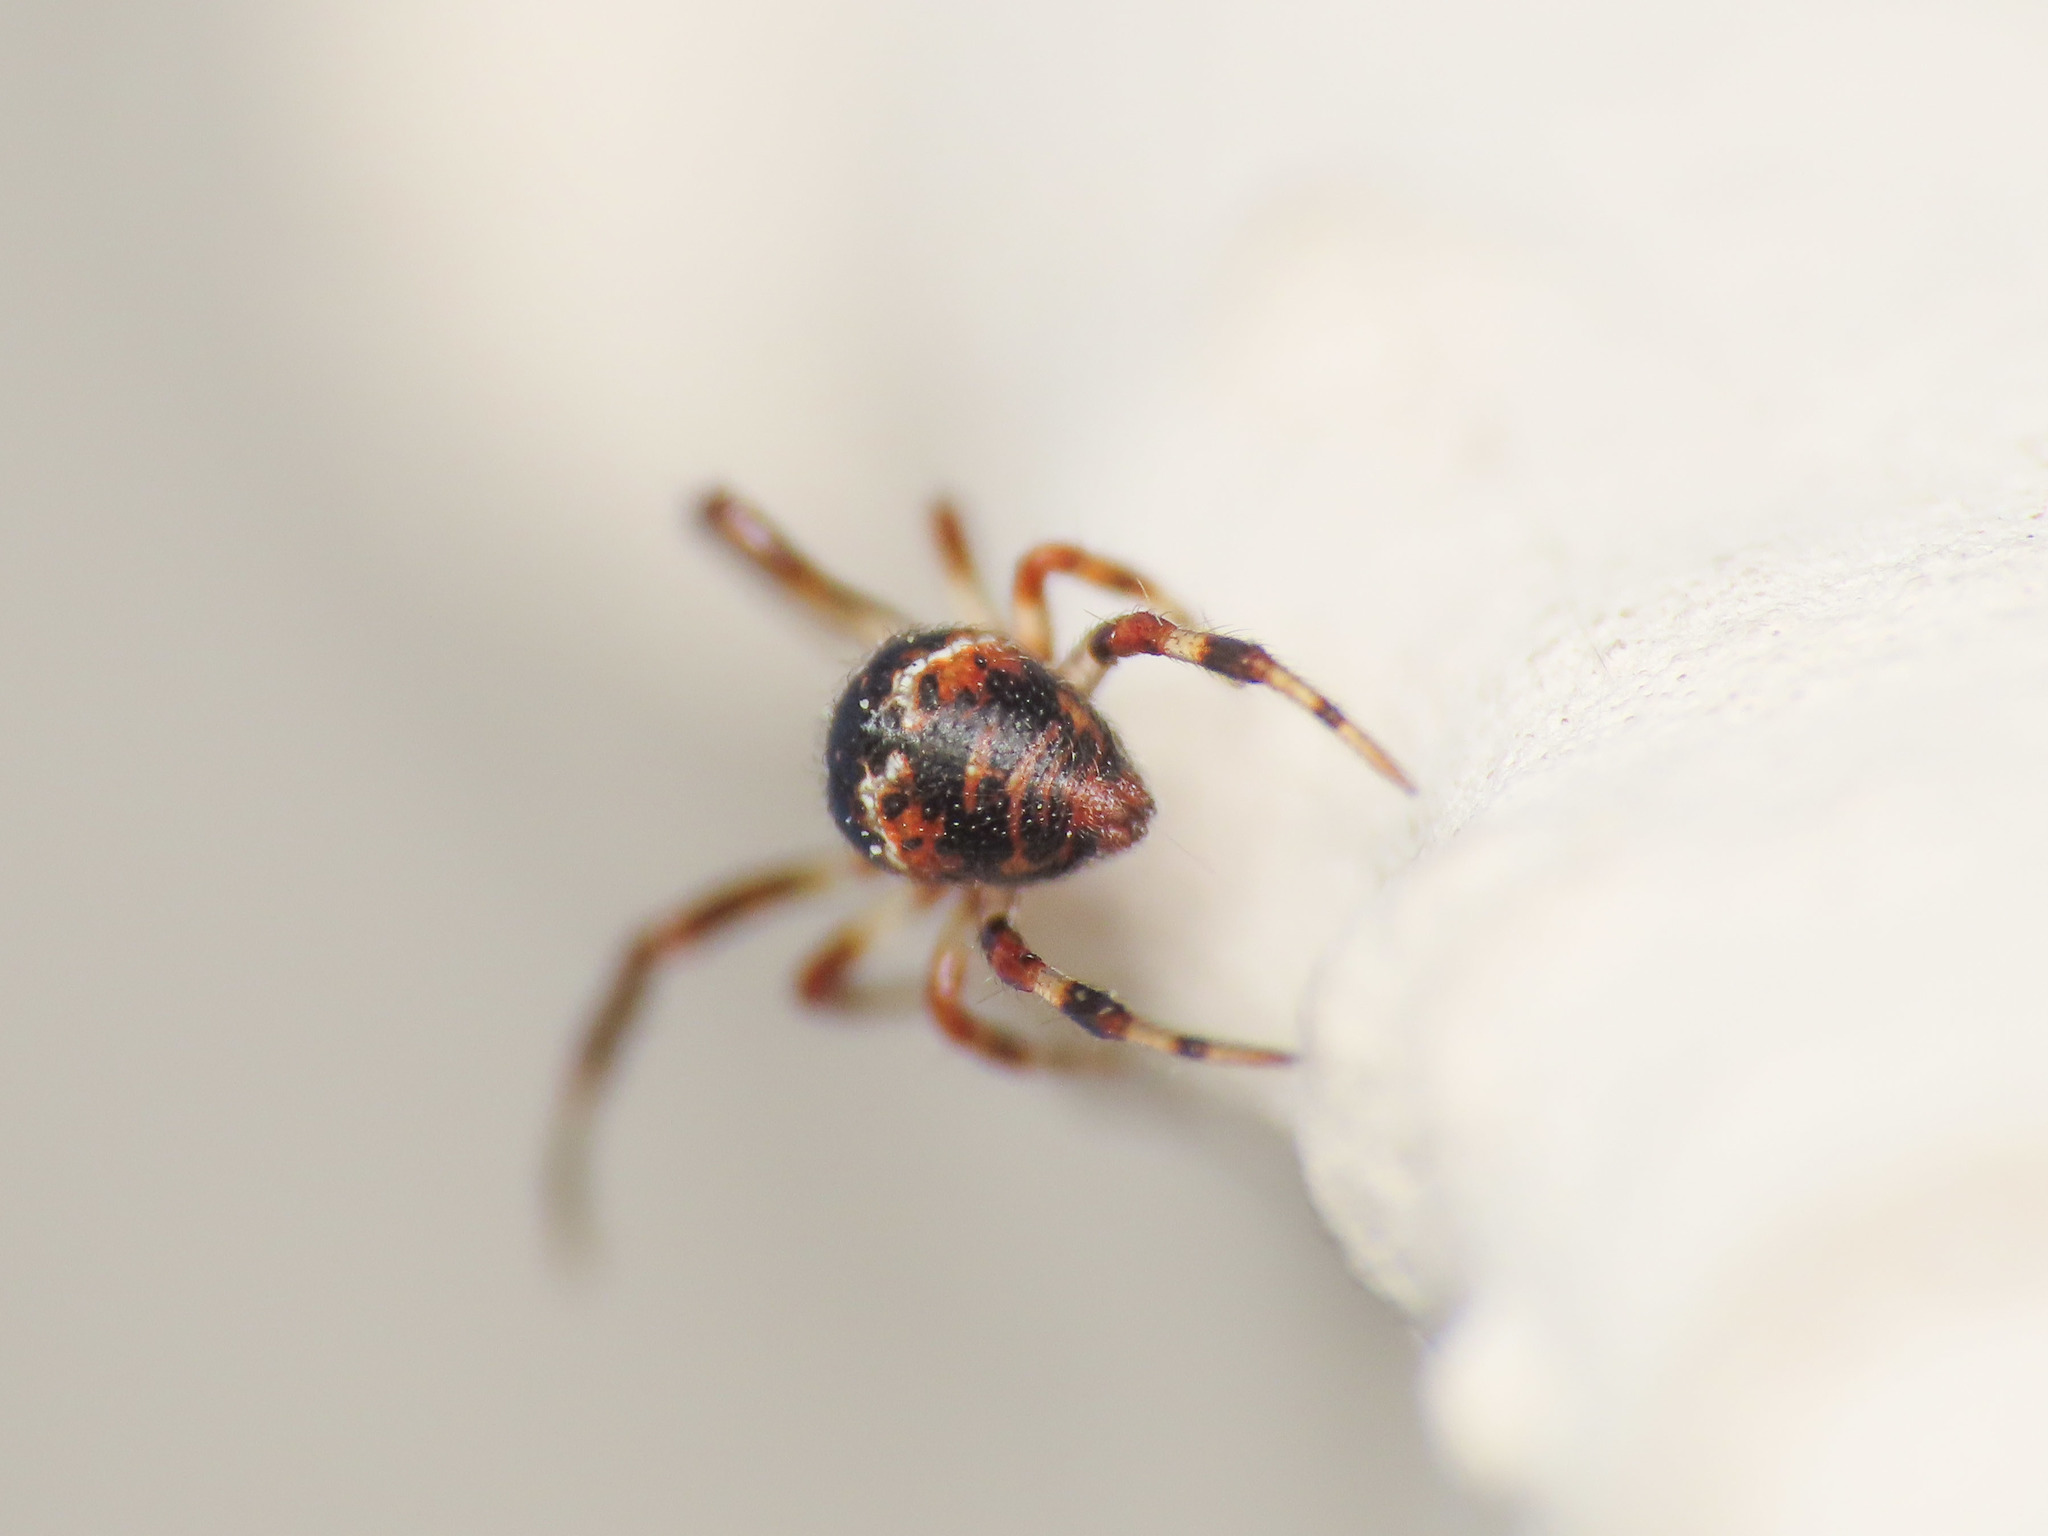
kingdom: Animalia
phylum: Arthropoda
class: Arachnida
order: Araneae
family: Theridiidae
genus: Cryptachaea
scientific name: Cryptachaea riparia
